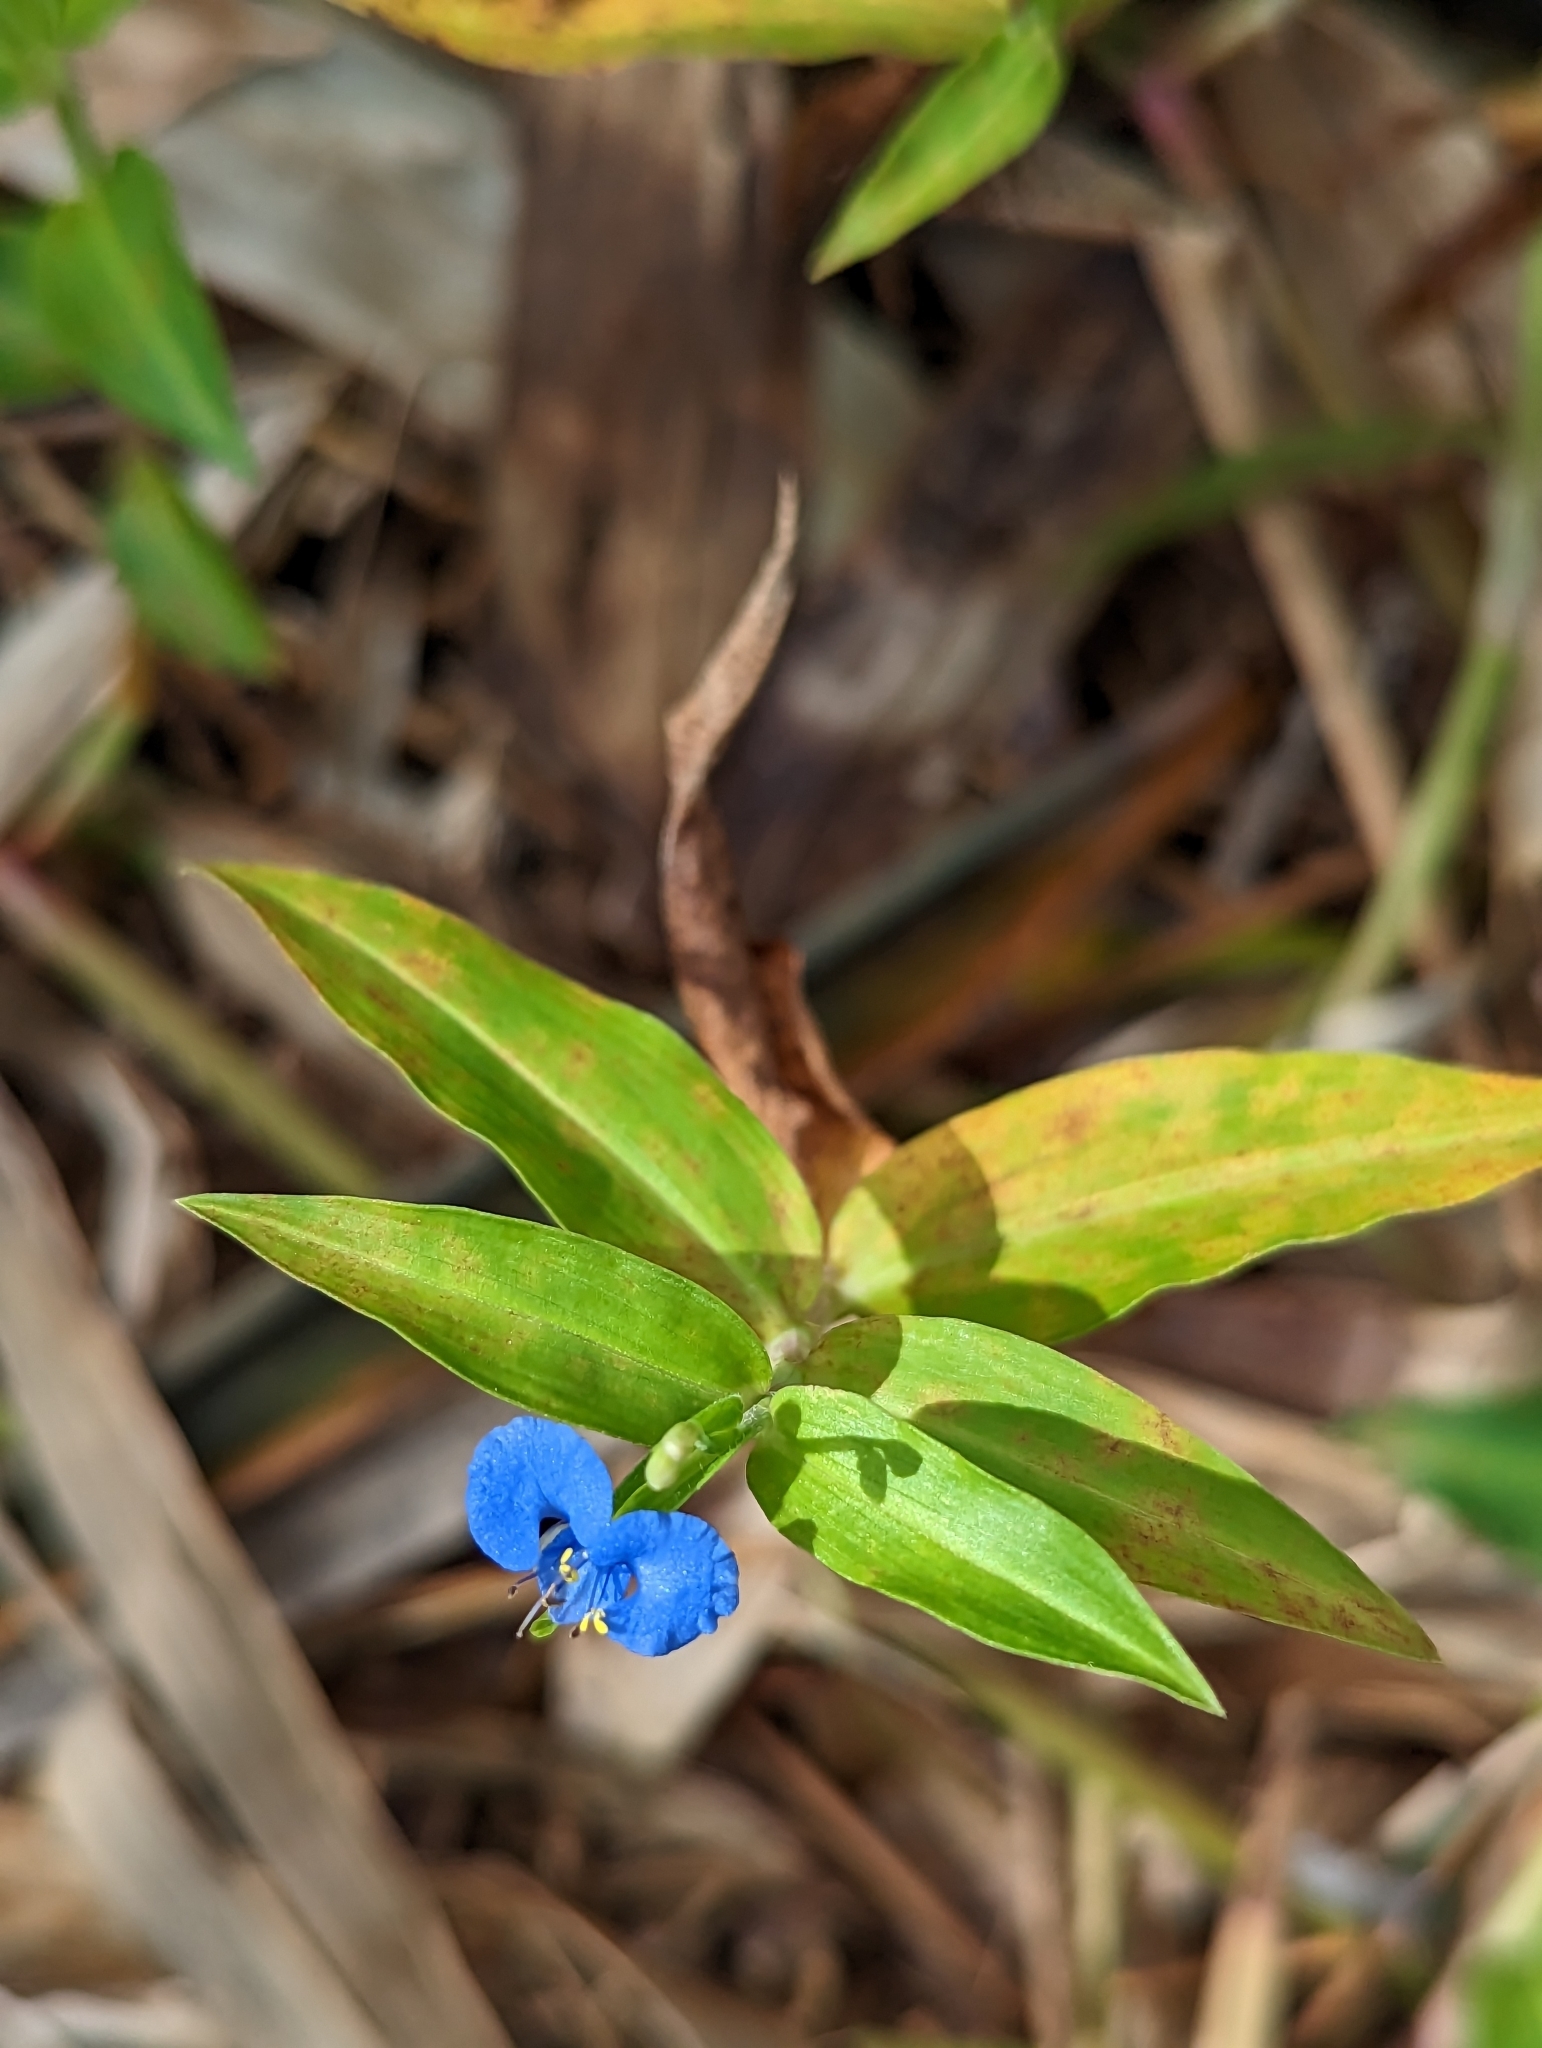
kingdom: Plantae
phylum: Tracheophyta
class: Liliopsida
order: Commelinales
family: Commelinaceae
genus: Commelina
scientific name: Commelina diffusa
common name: Climbing dayflower
